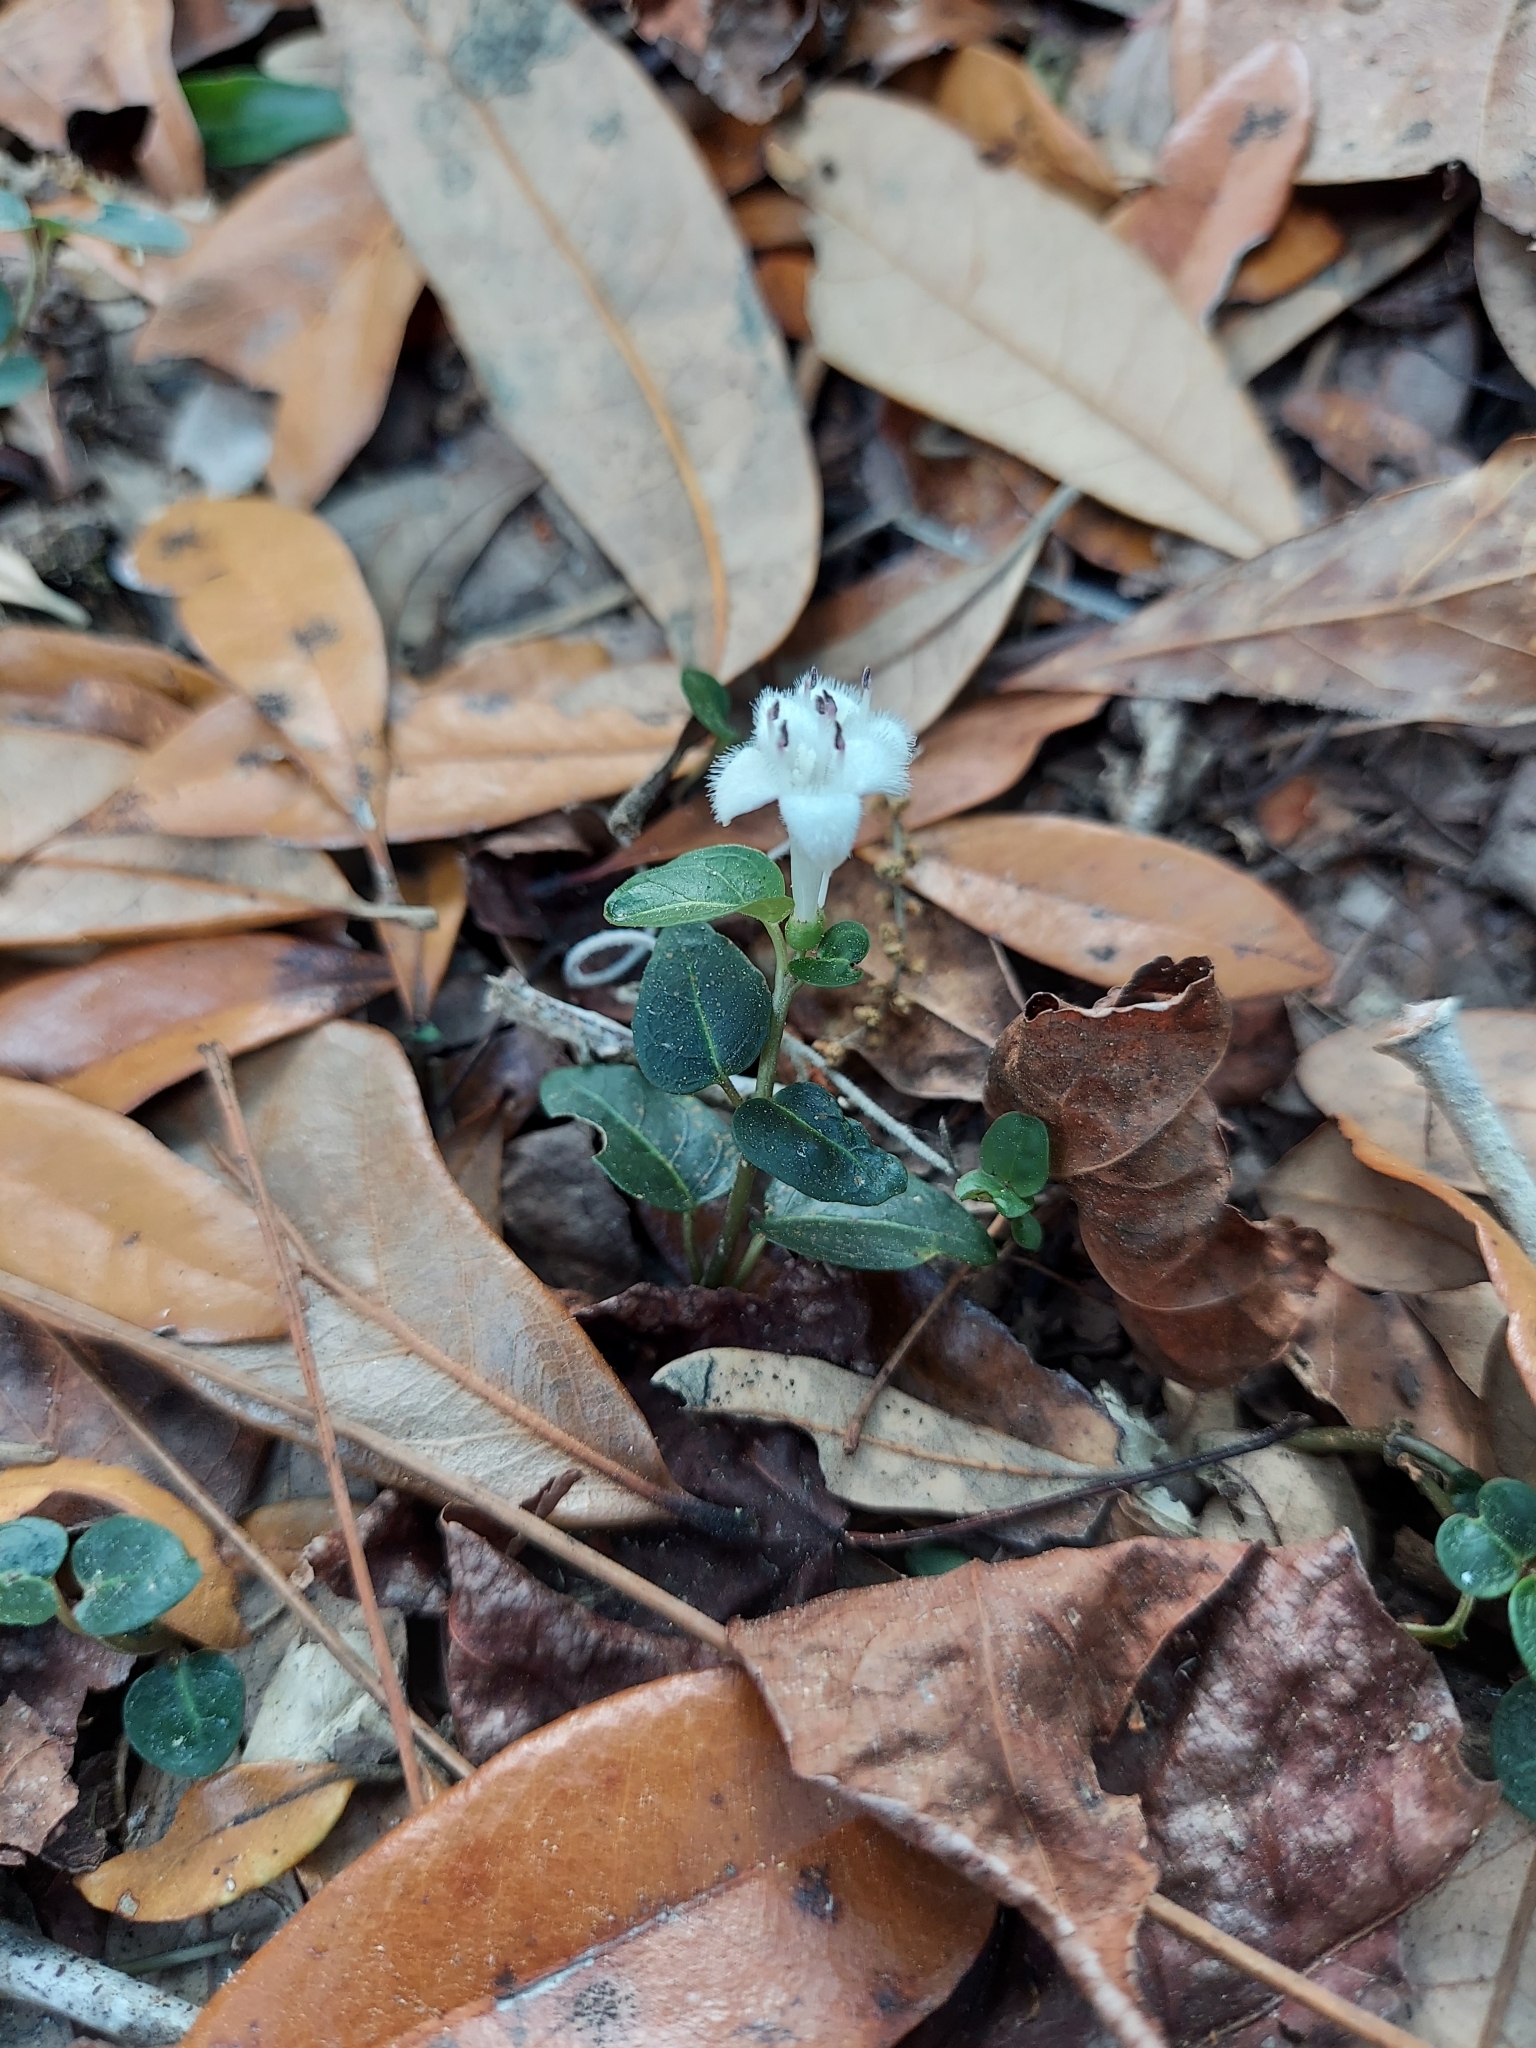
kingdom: Plantae
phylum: Tracheophyta
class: Magnoliopsida
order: Gentianales
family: Rubiaceae
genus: Mitchella
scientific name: Mitchella repens
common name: Partridge-berry
